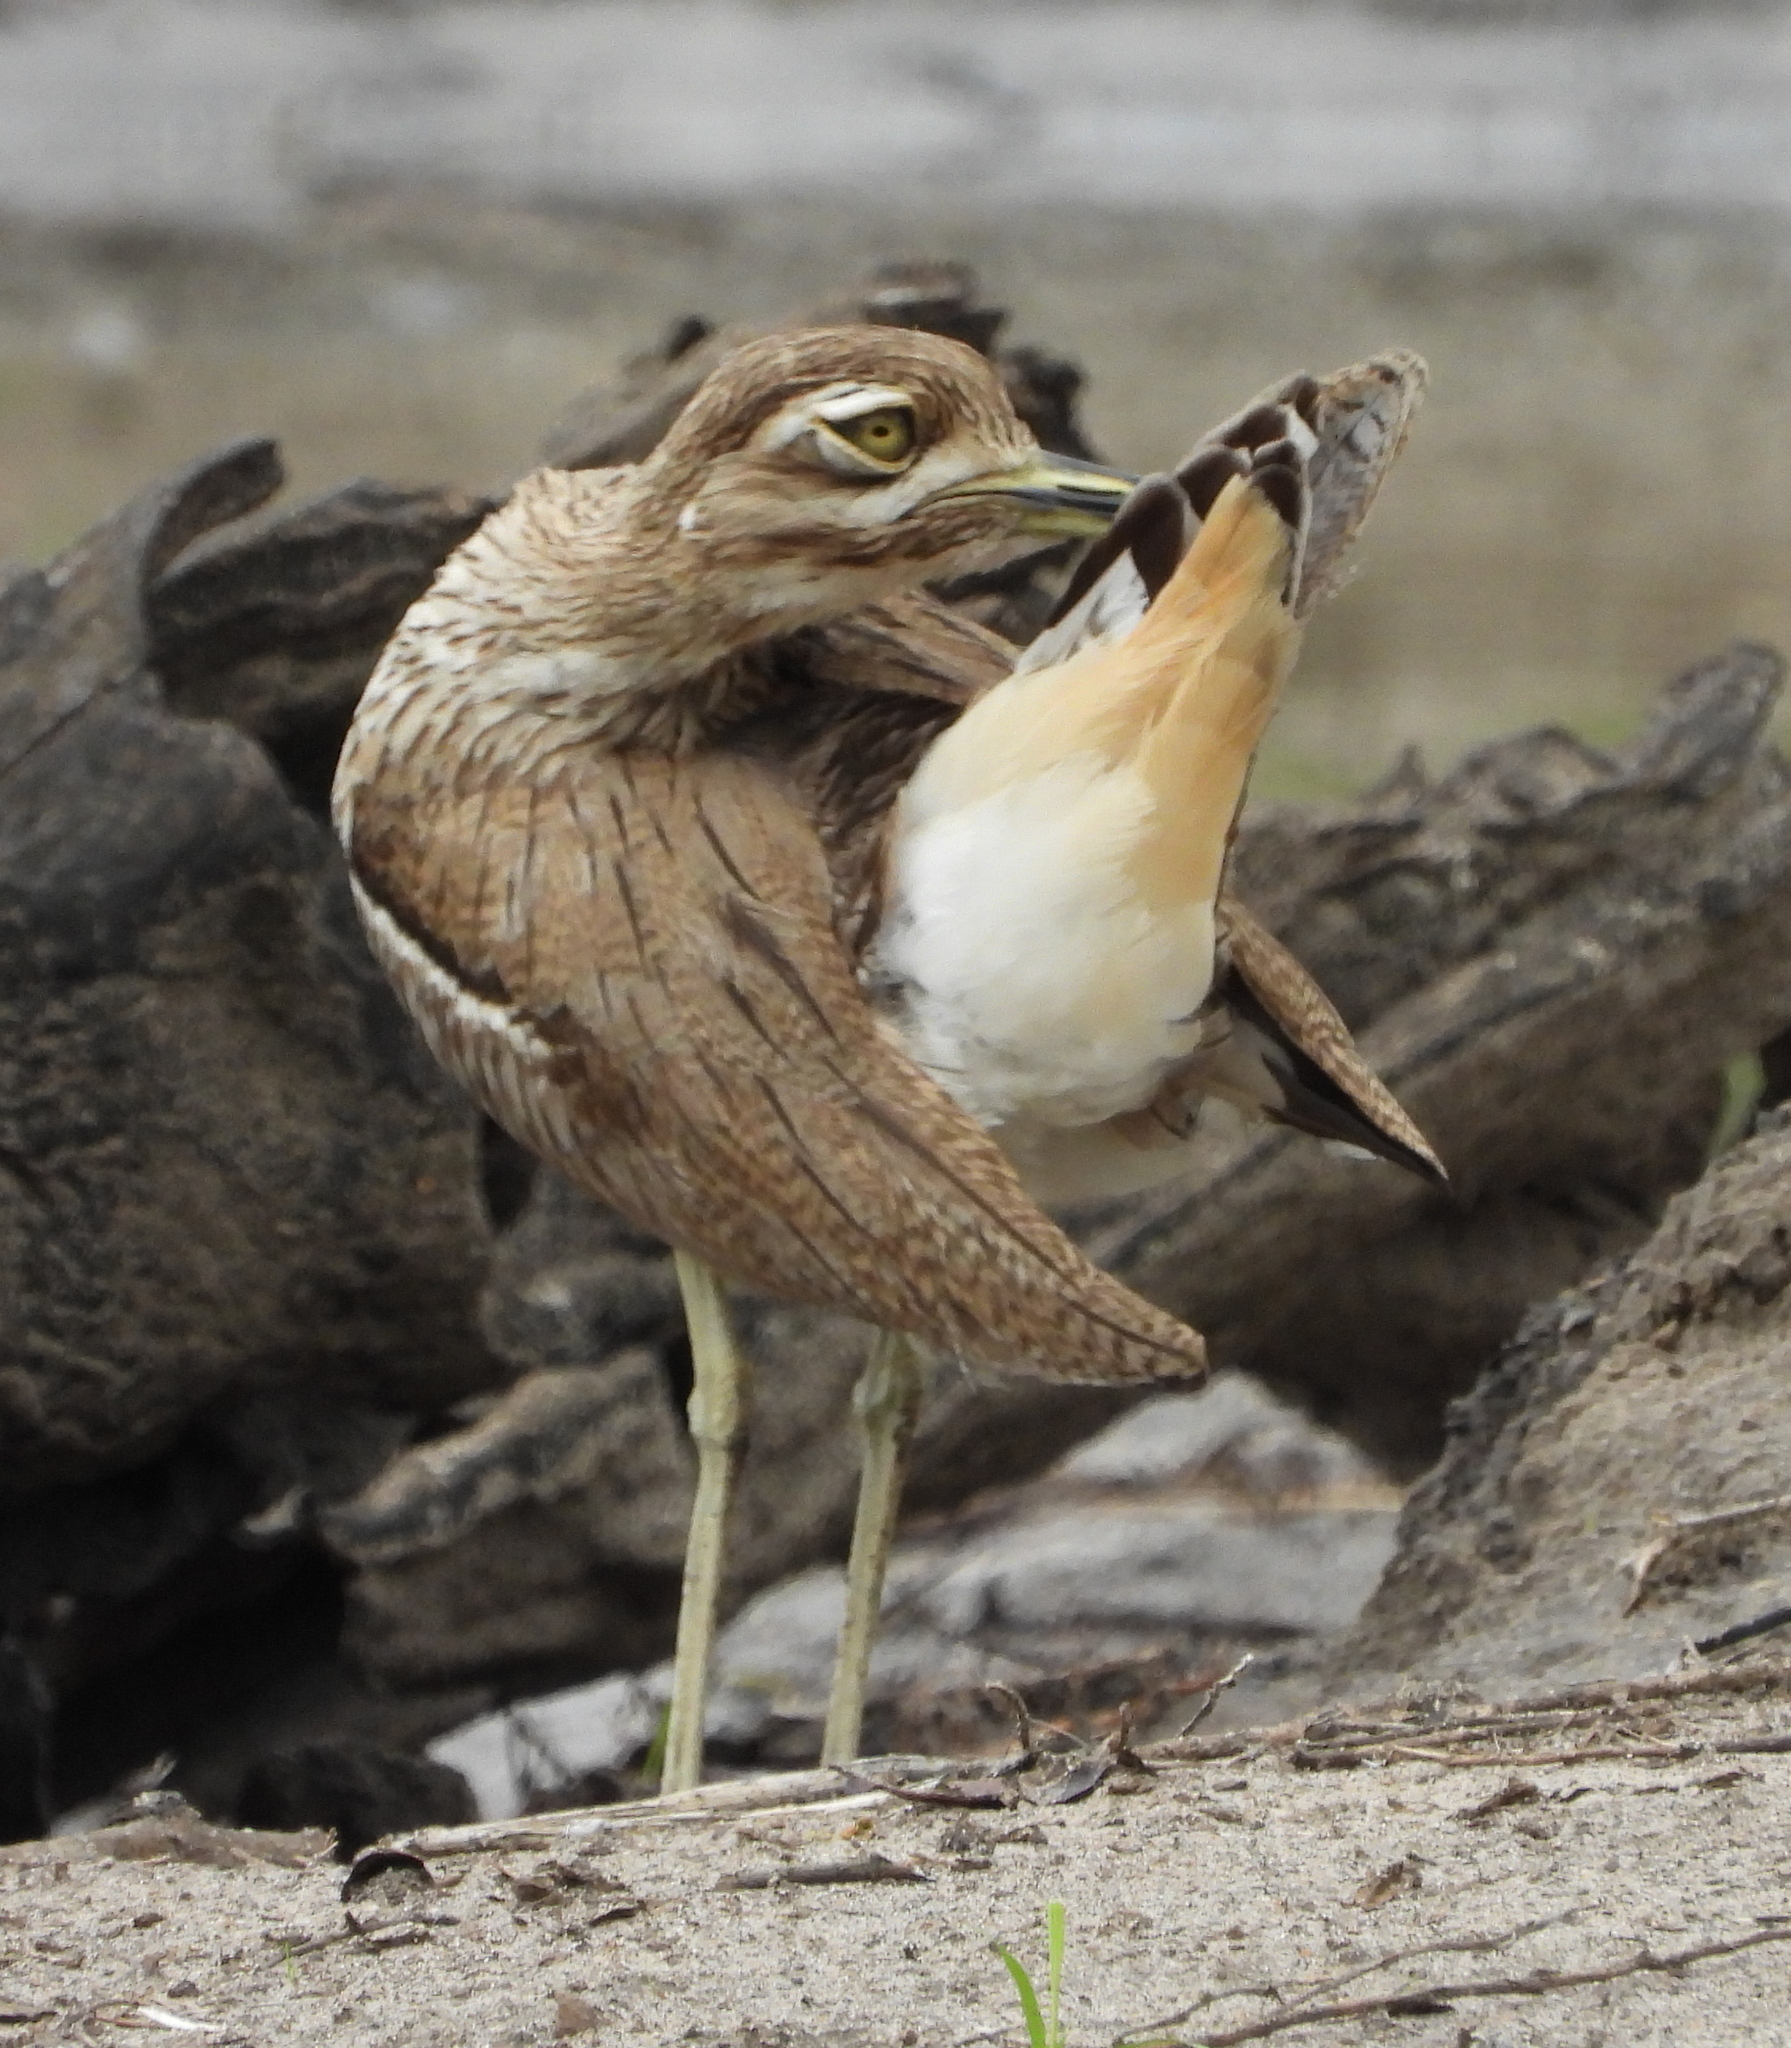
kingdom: Animalia
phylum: Chordata
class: Aves
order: Charadriiformes
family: Burhinidae
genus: Burhinus
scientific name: Burhinus vermiculatus
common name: Water thick-knee
